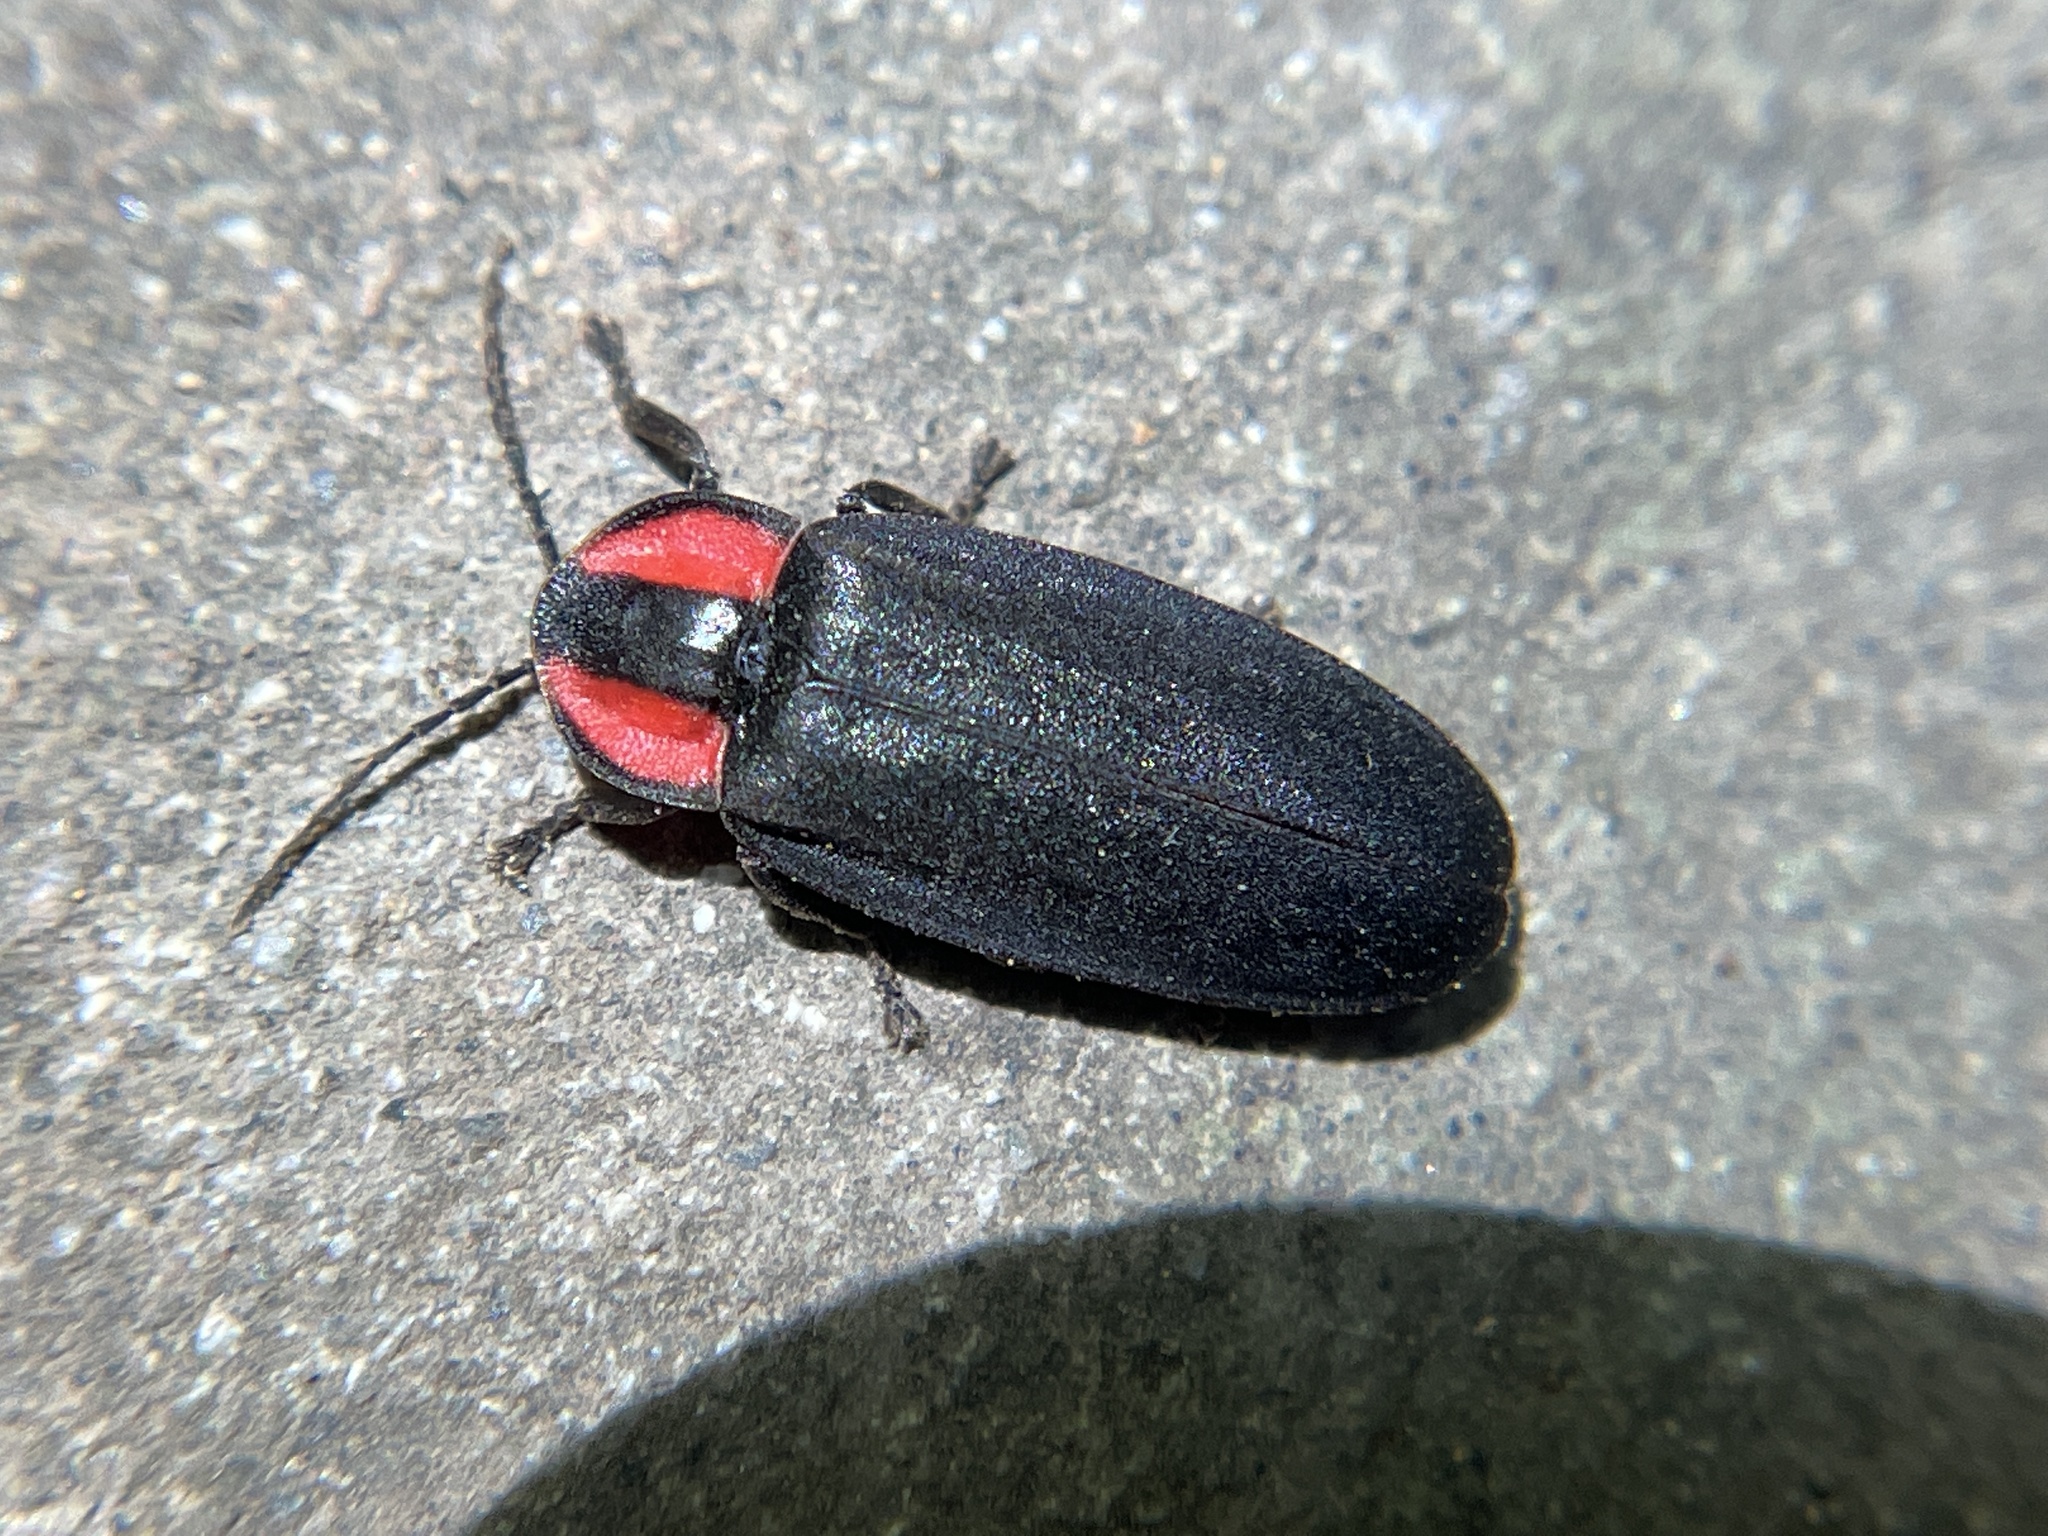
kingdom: Animalia
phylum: Arthropoda
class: Insecta
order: Coleoptera
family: Lampyridae
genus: Ellychnia
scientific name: Ellychnia megista
